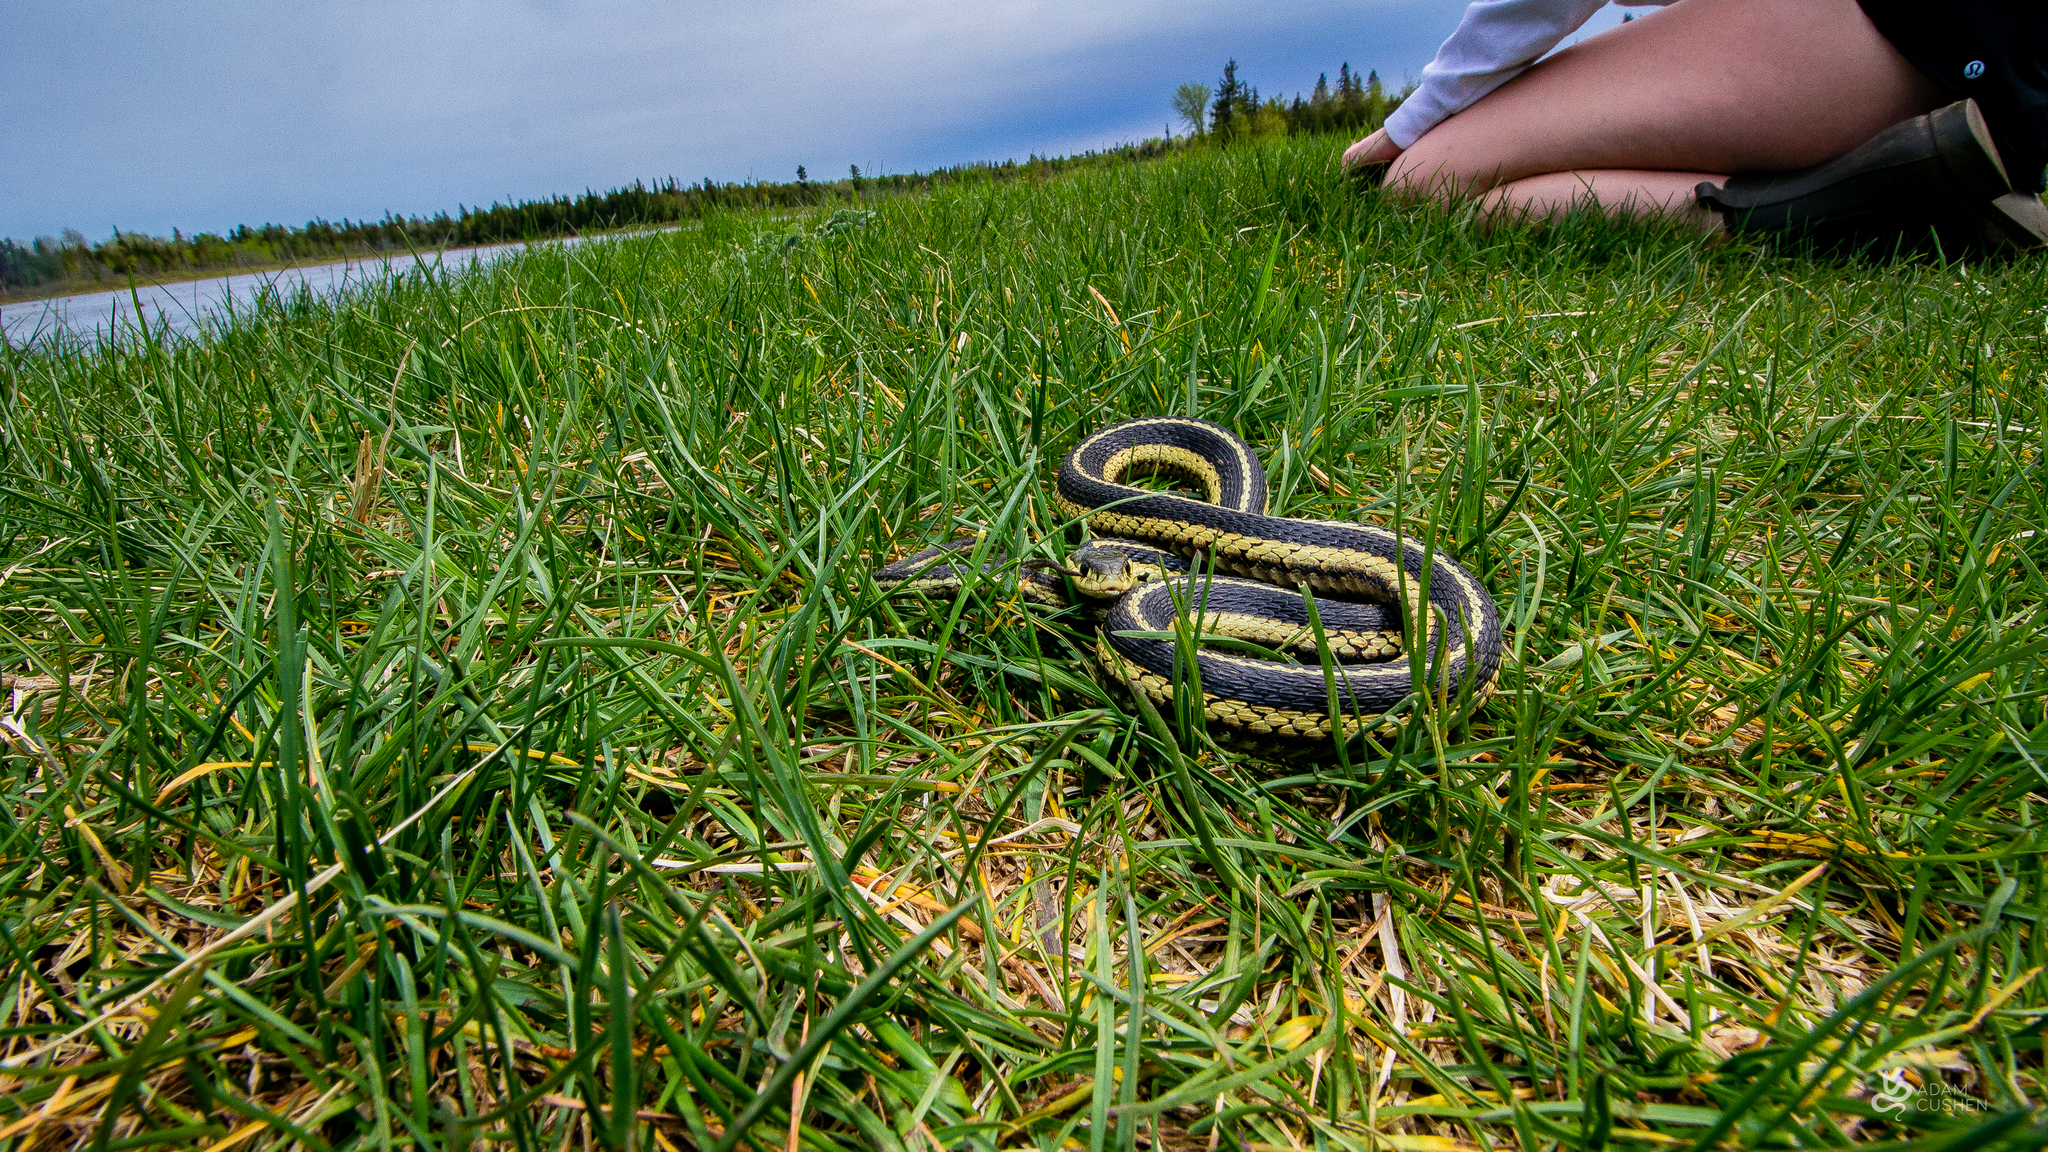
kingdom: Animalia
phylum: Chordata
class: Squamata
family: Colubridae
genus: Thamnophis
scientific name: Thamnophis sirtalis
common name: Common garter snake
